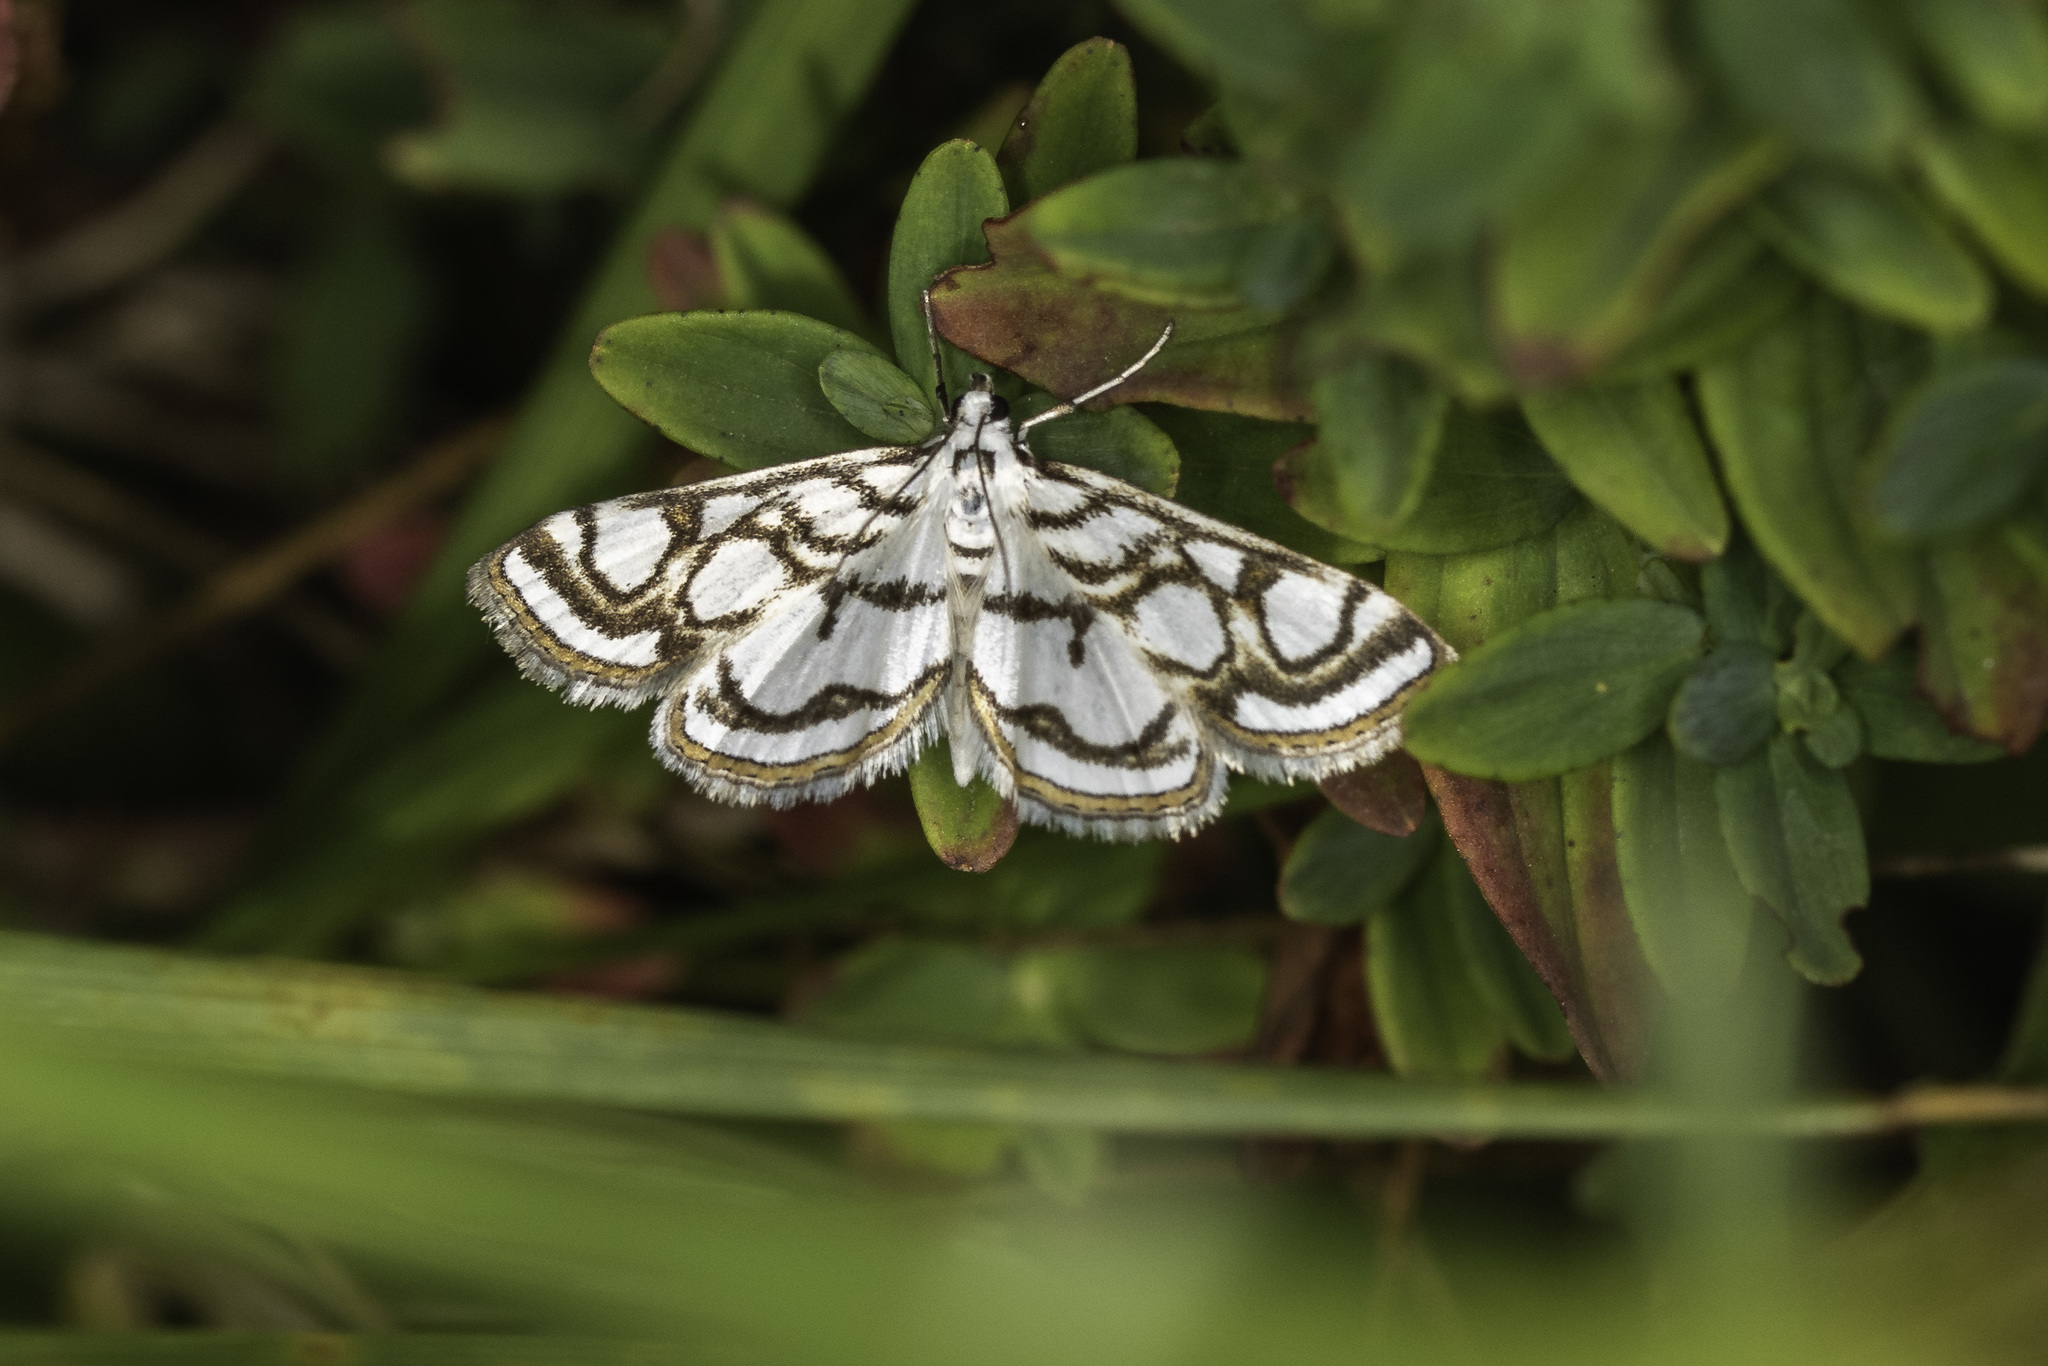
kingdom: Animalia
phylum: Arthropoda
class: Insecta
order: Lepidoptera
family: Crambidae
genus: Nymphula
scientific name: Nymphula nitidulata
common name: Beautiful china mark
